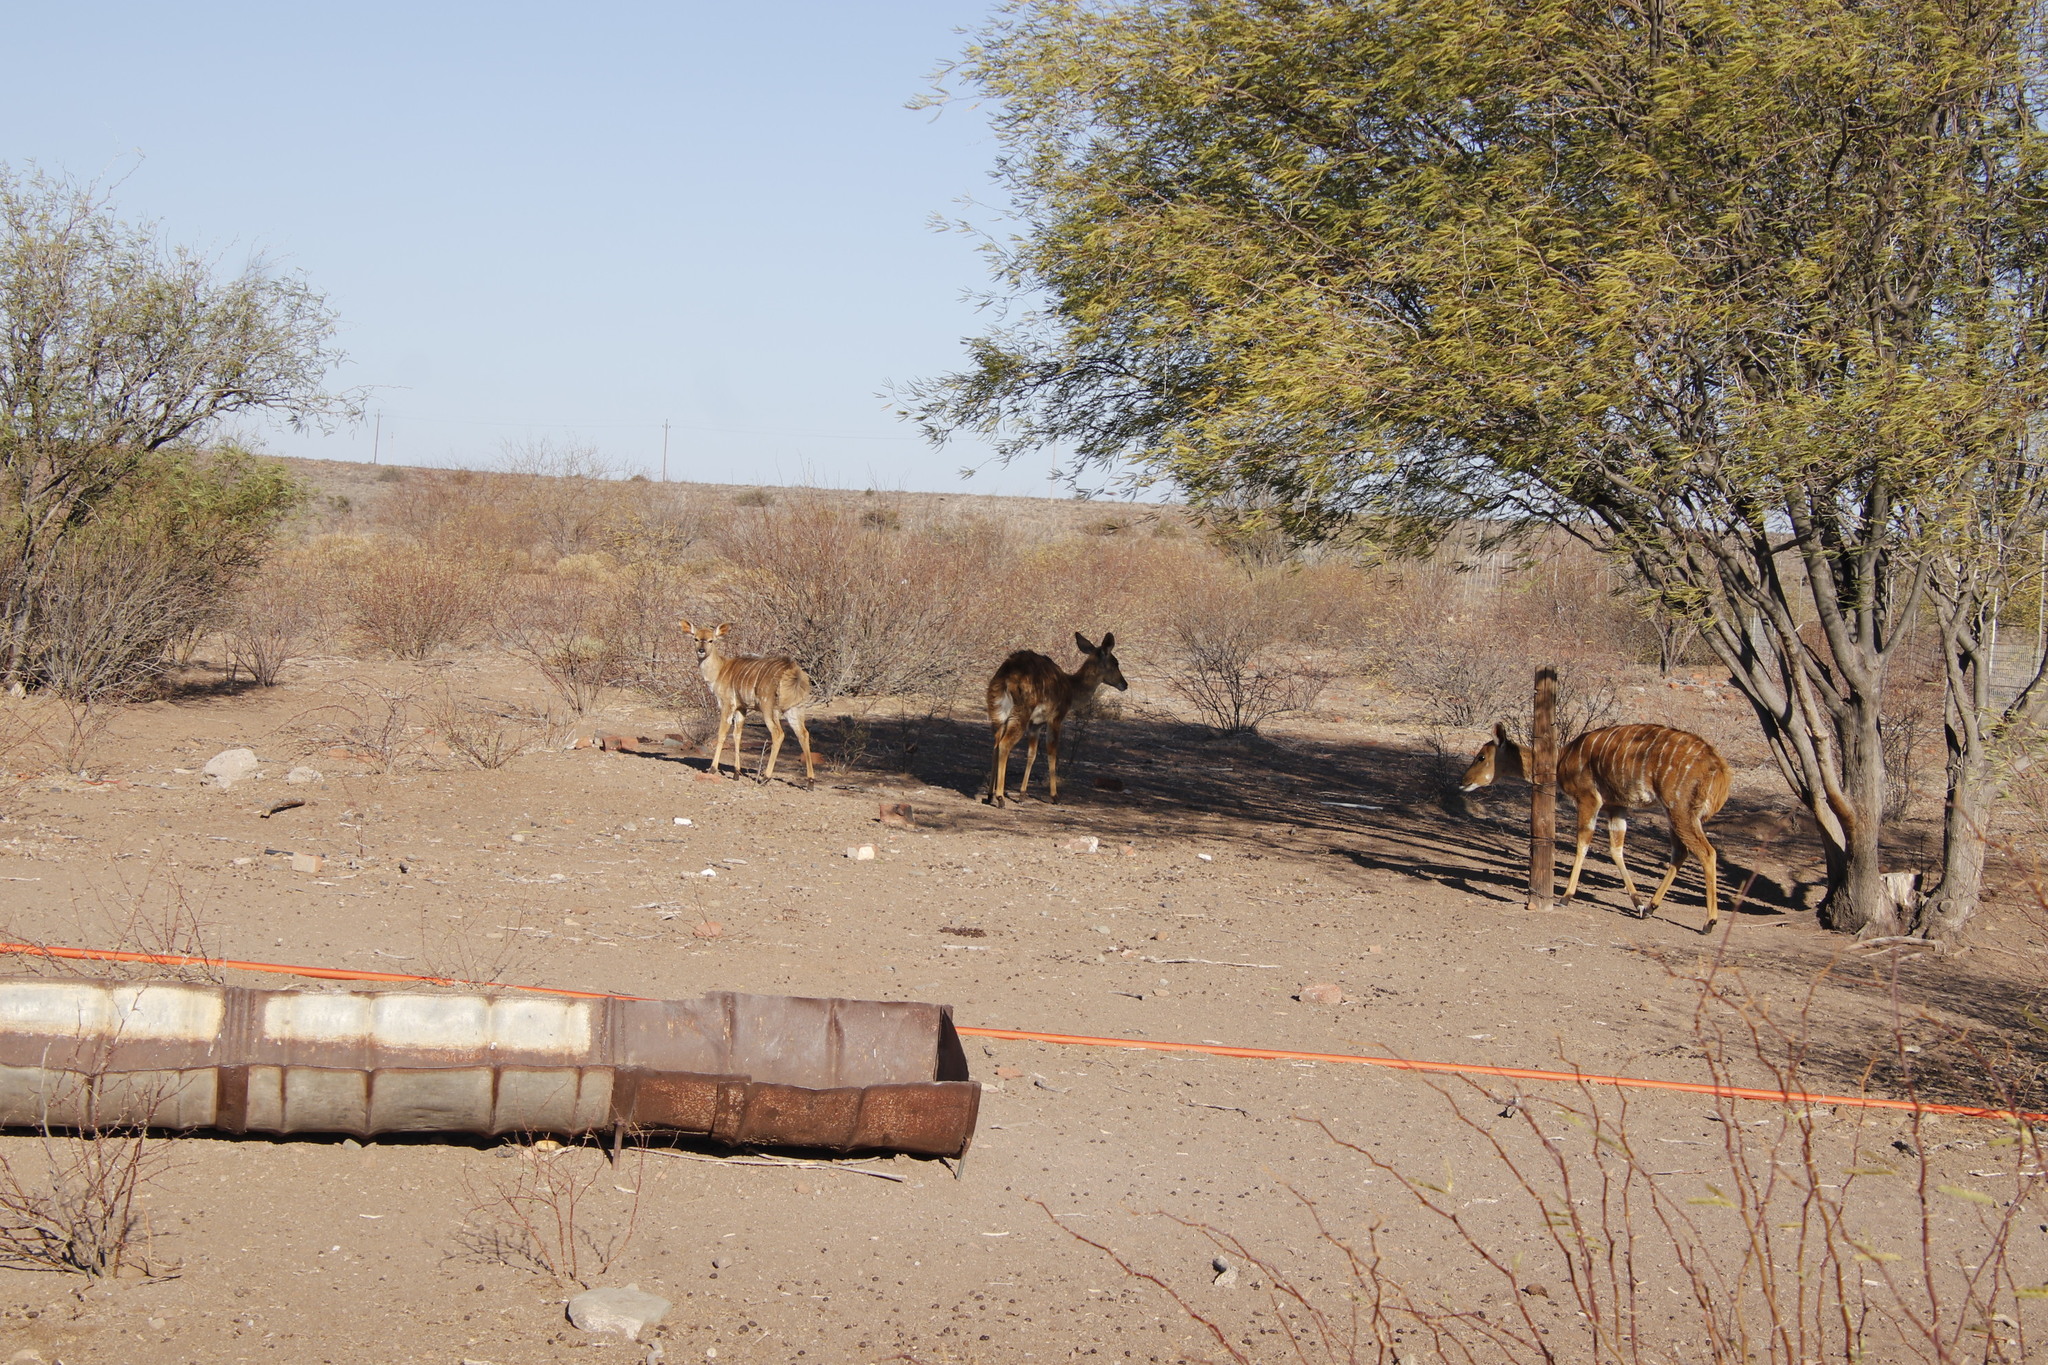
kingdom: Animalia
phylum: Chordata
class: Mammalia
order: Artiodactyla
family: Bovidae
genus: Tragelaphus
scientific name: Tragelaphus angasii
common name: Nyala
